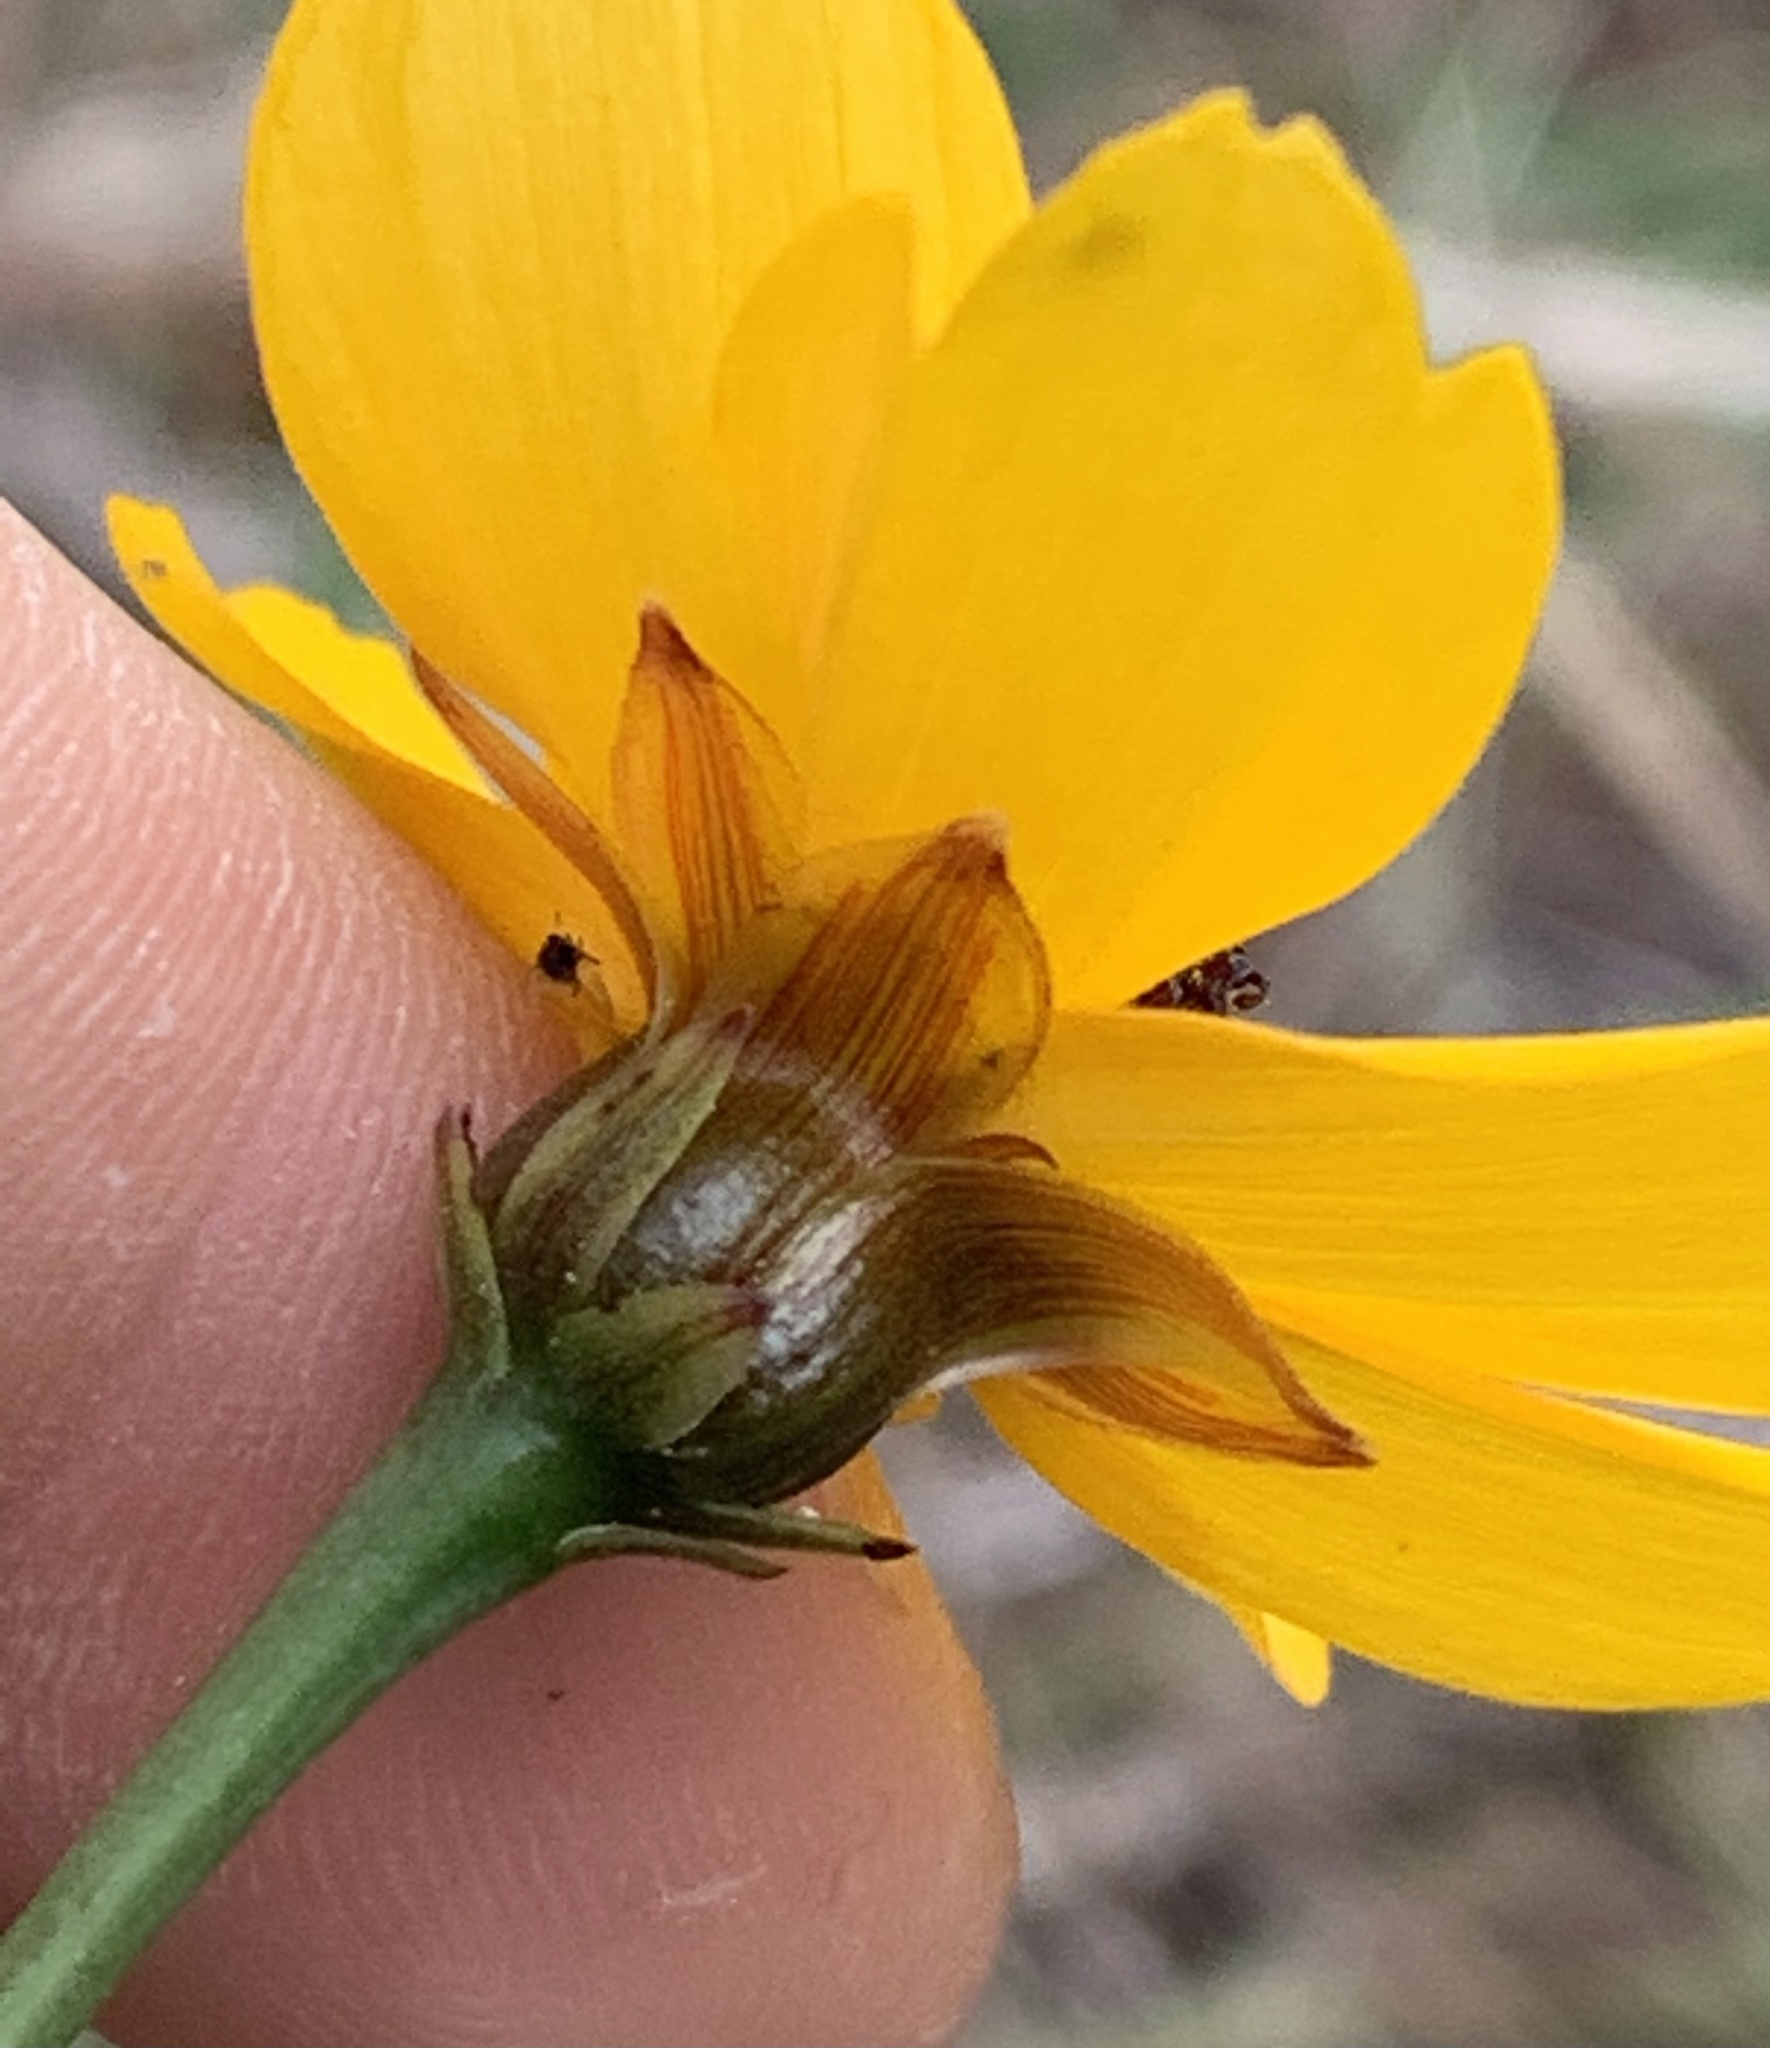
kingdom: Plantae
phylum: Tracheophyta
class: Magnoliopsida
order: Asterales
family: Asteraceae
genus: Coreopsis
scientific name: Coreopsis gladiata
